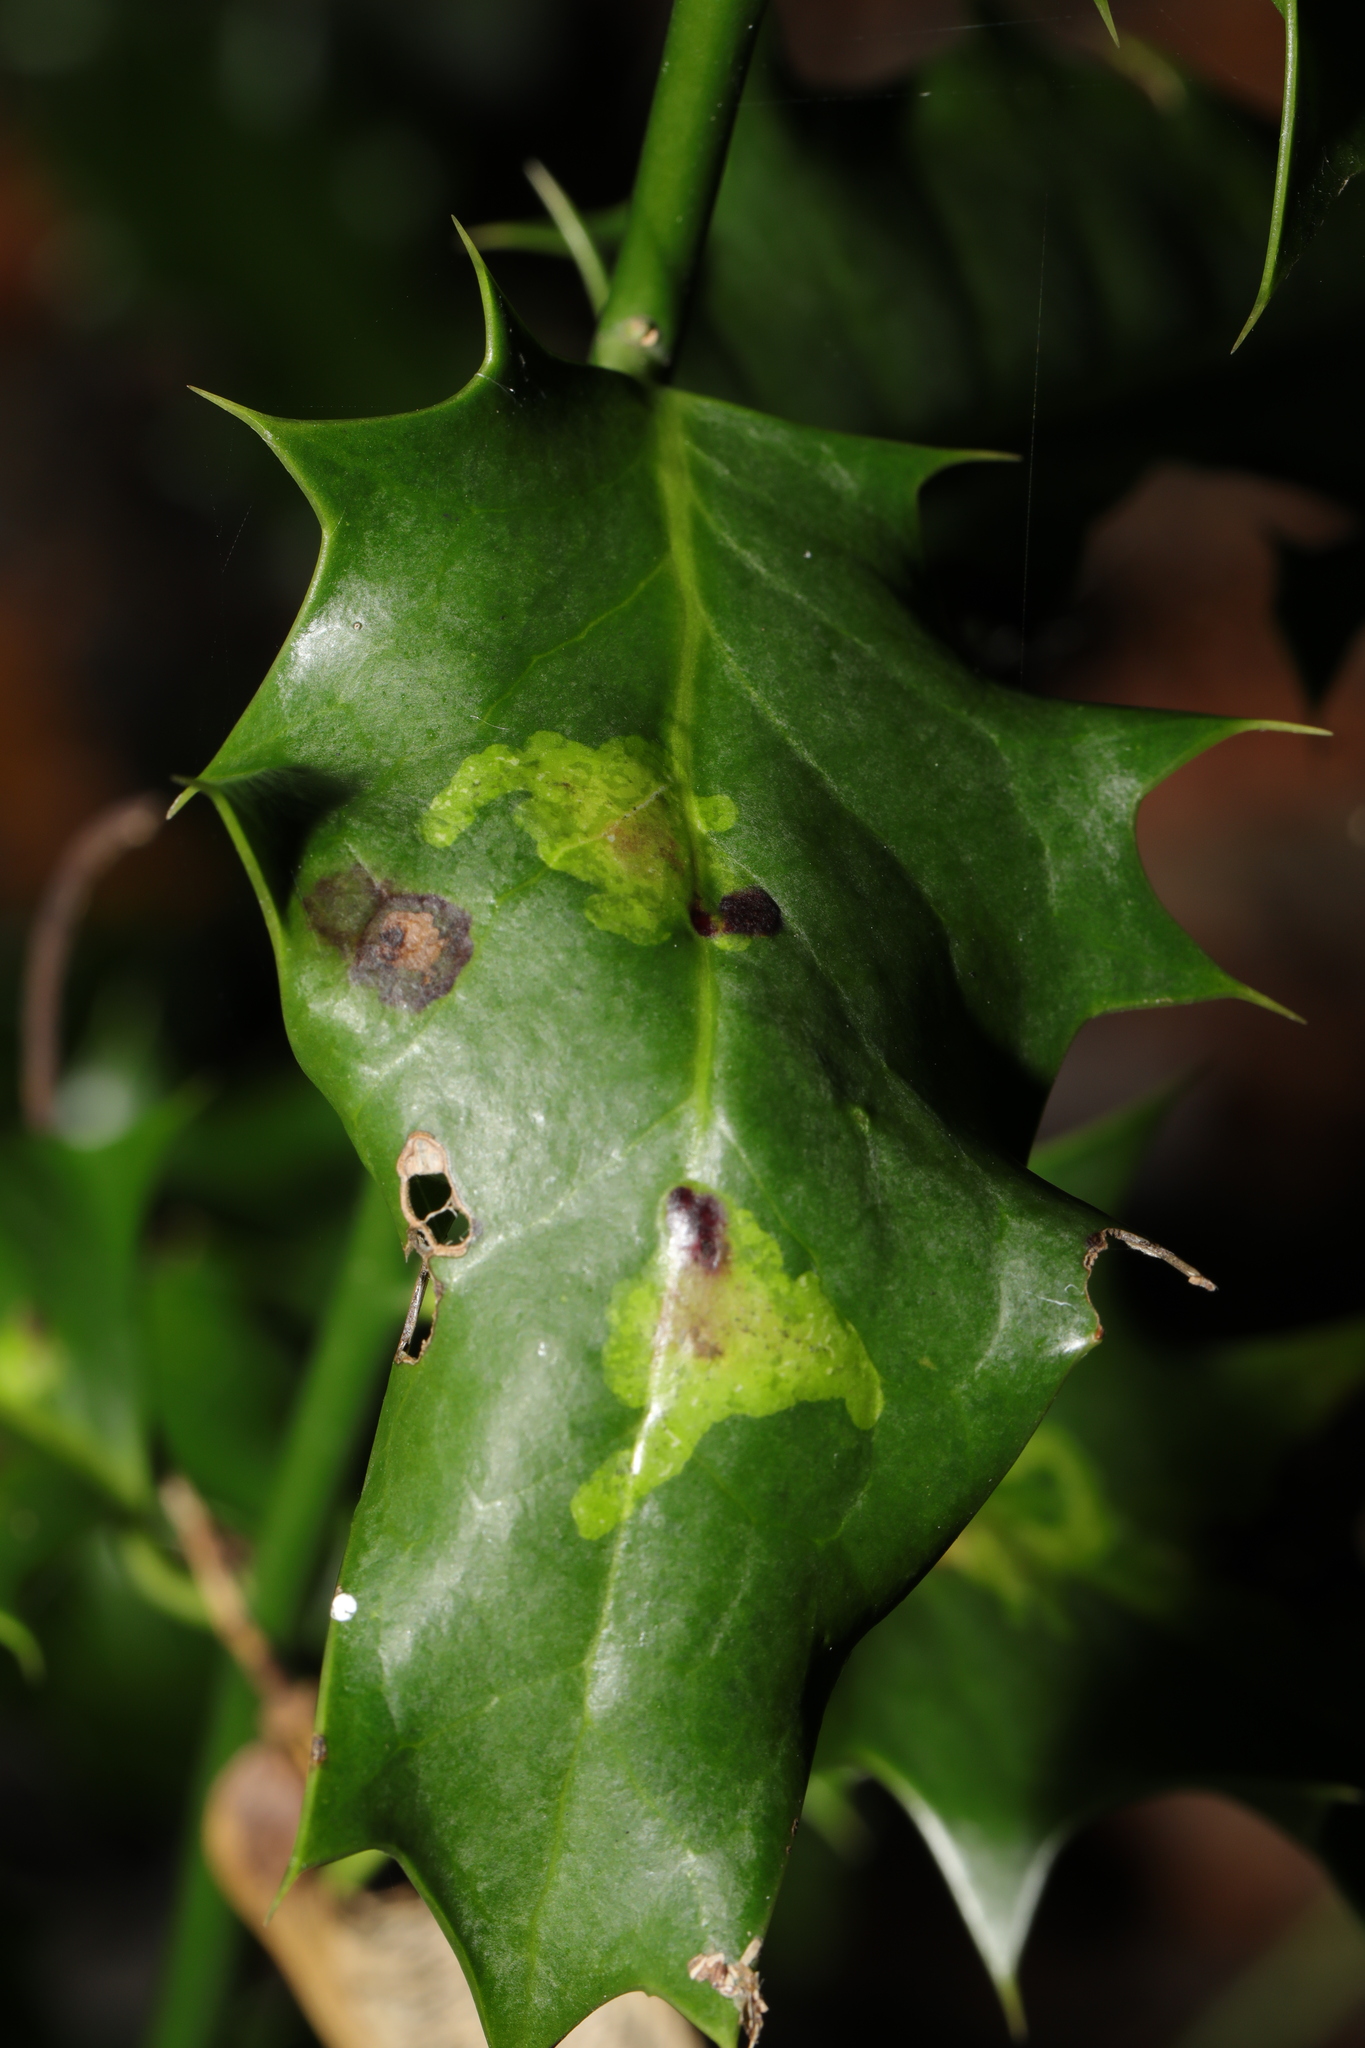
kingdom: Animalia
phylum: Arthropoda
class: Insecta
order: Diptera
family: Agromyzidae
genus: Phytomyza
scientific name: Phytomyza ilicis
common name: Holly leafminer
